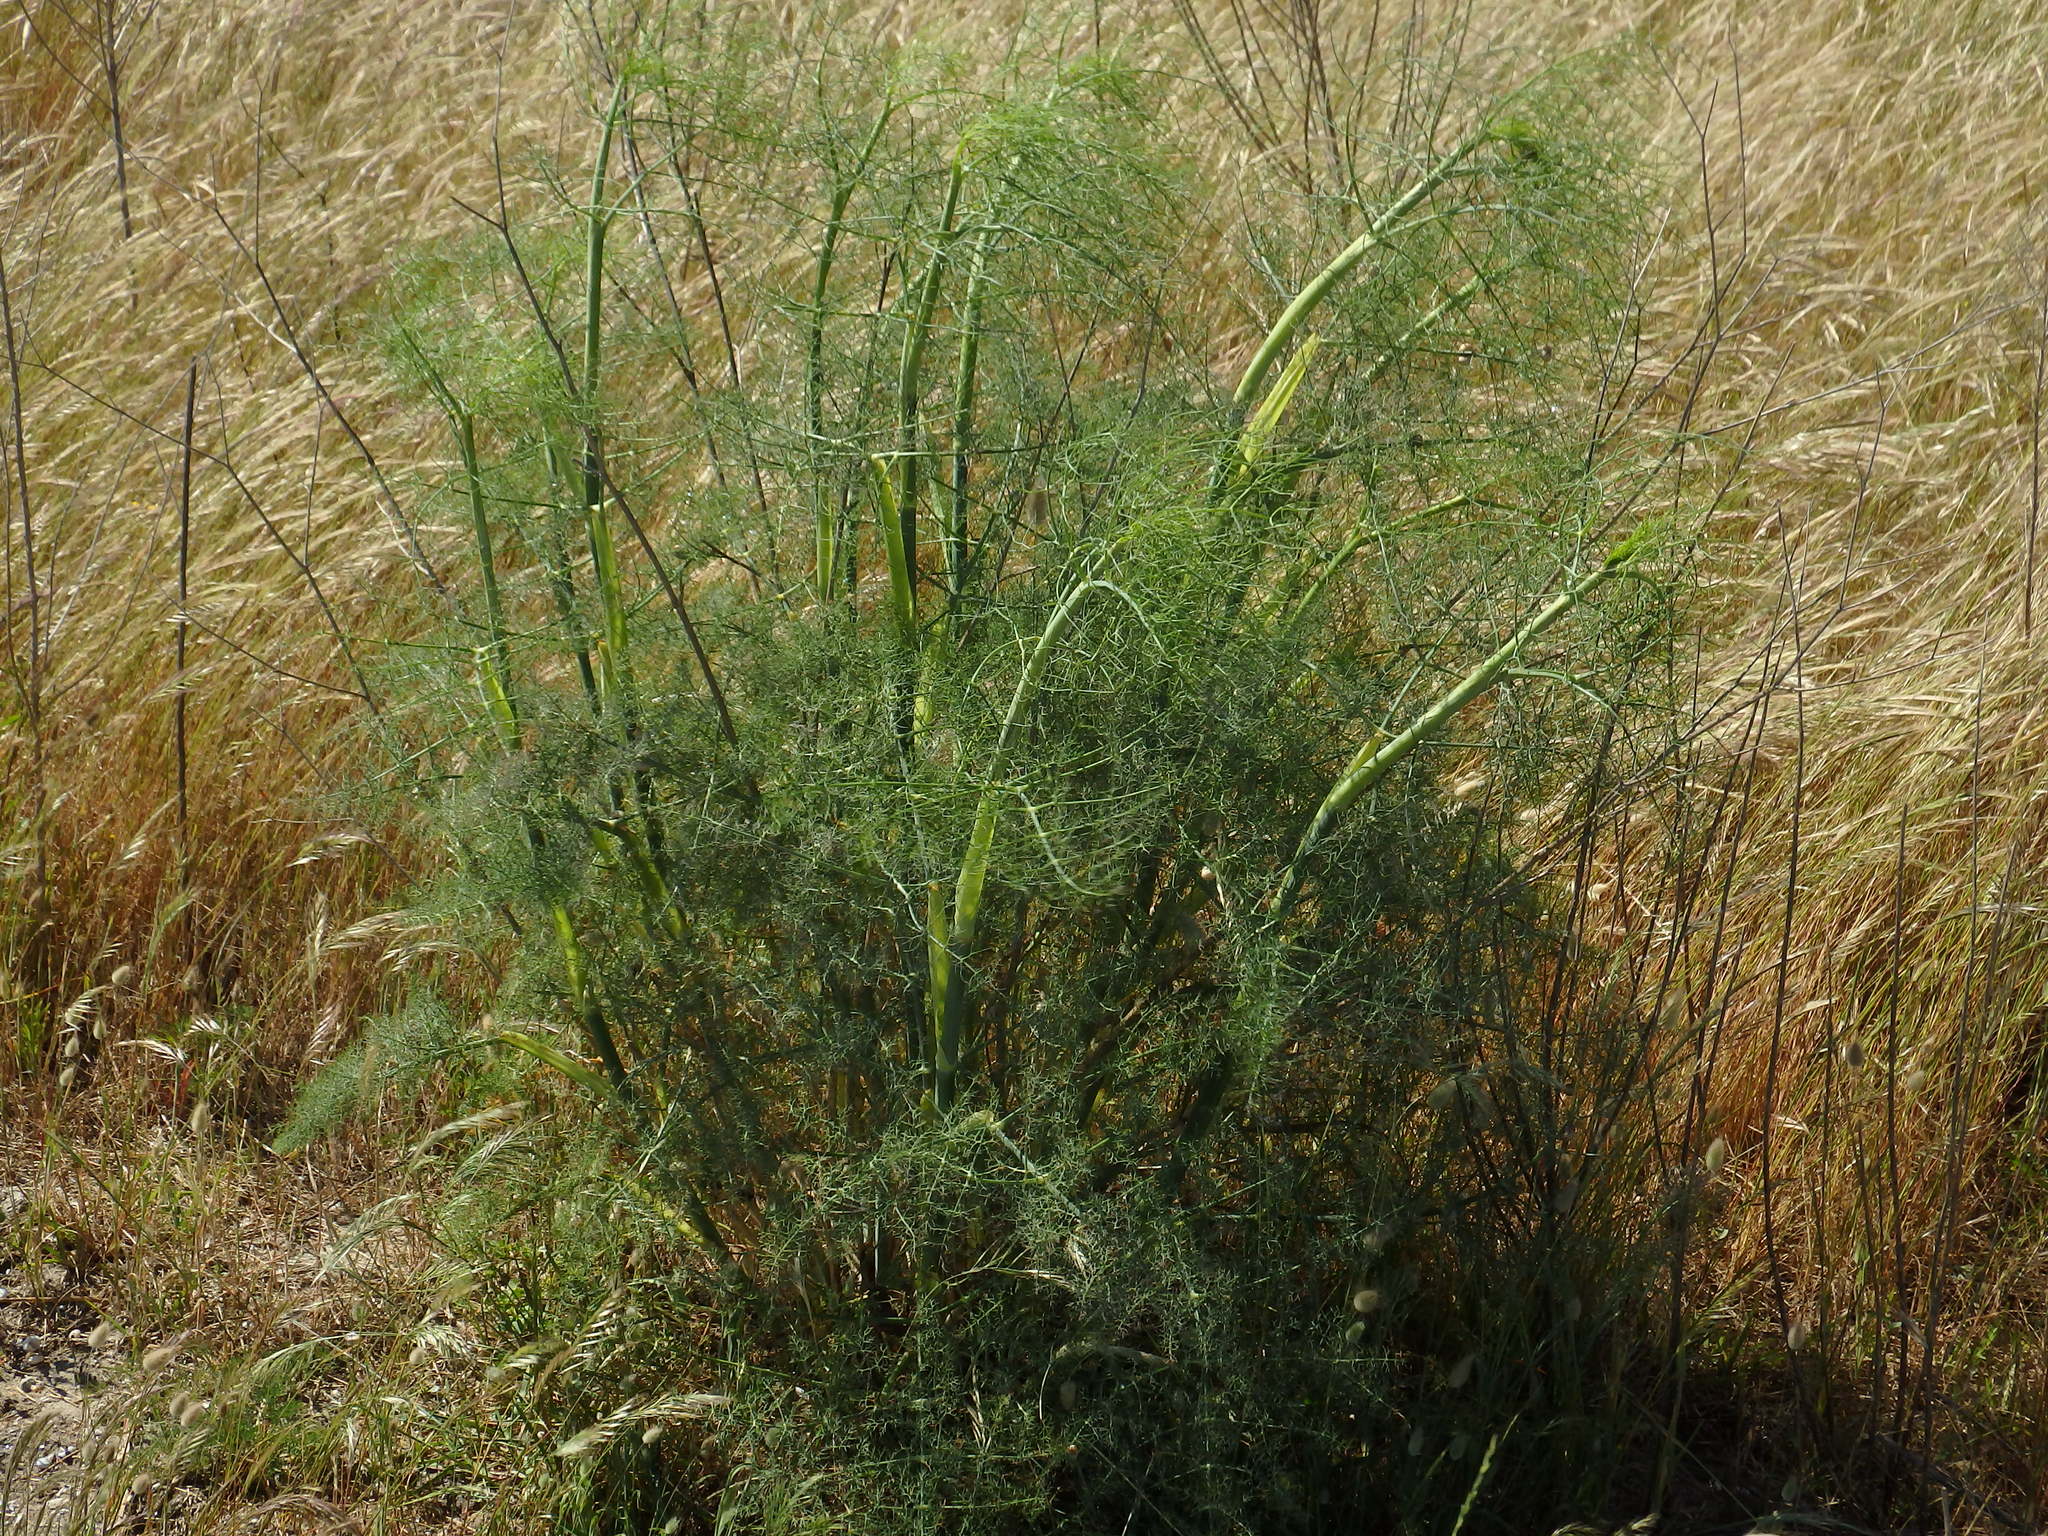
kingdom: Plantae
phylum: Tracheophyta
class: Magnoliopsida
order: Apiales
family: Apiaceae
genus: Foeniculum
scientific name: Foeniculum vulgare
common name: Fennel
